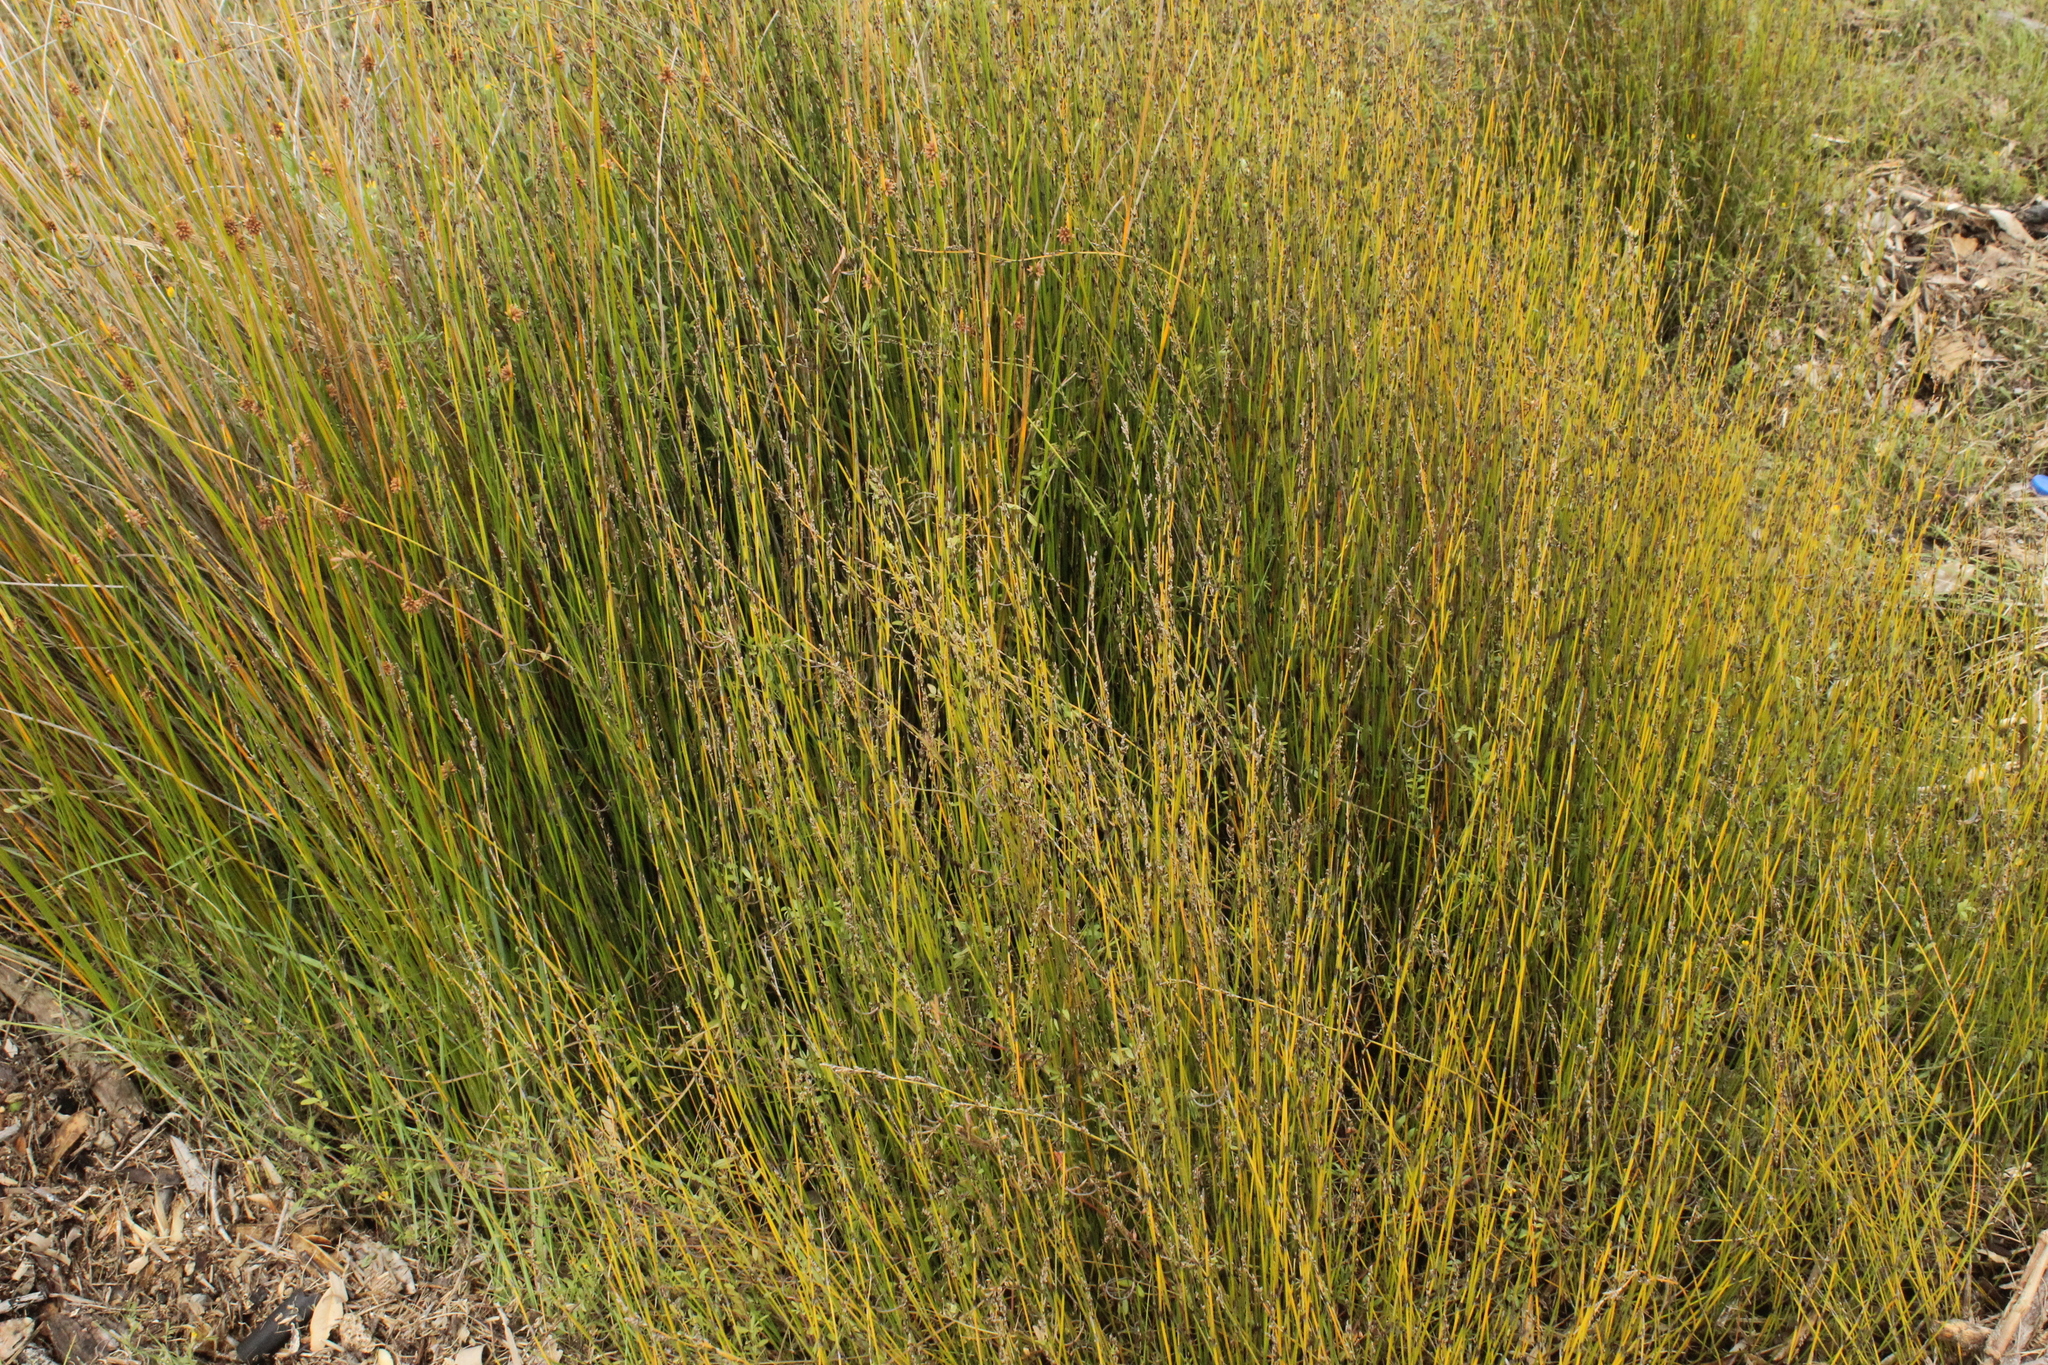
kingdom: Plantae
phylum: Tracheophyta
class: Liliopsida
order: Poales
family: Restionaceae
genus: Apodasmia
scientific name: Apodasmia similis
